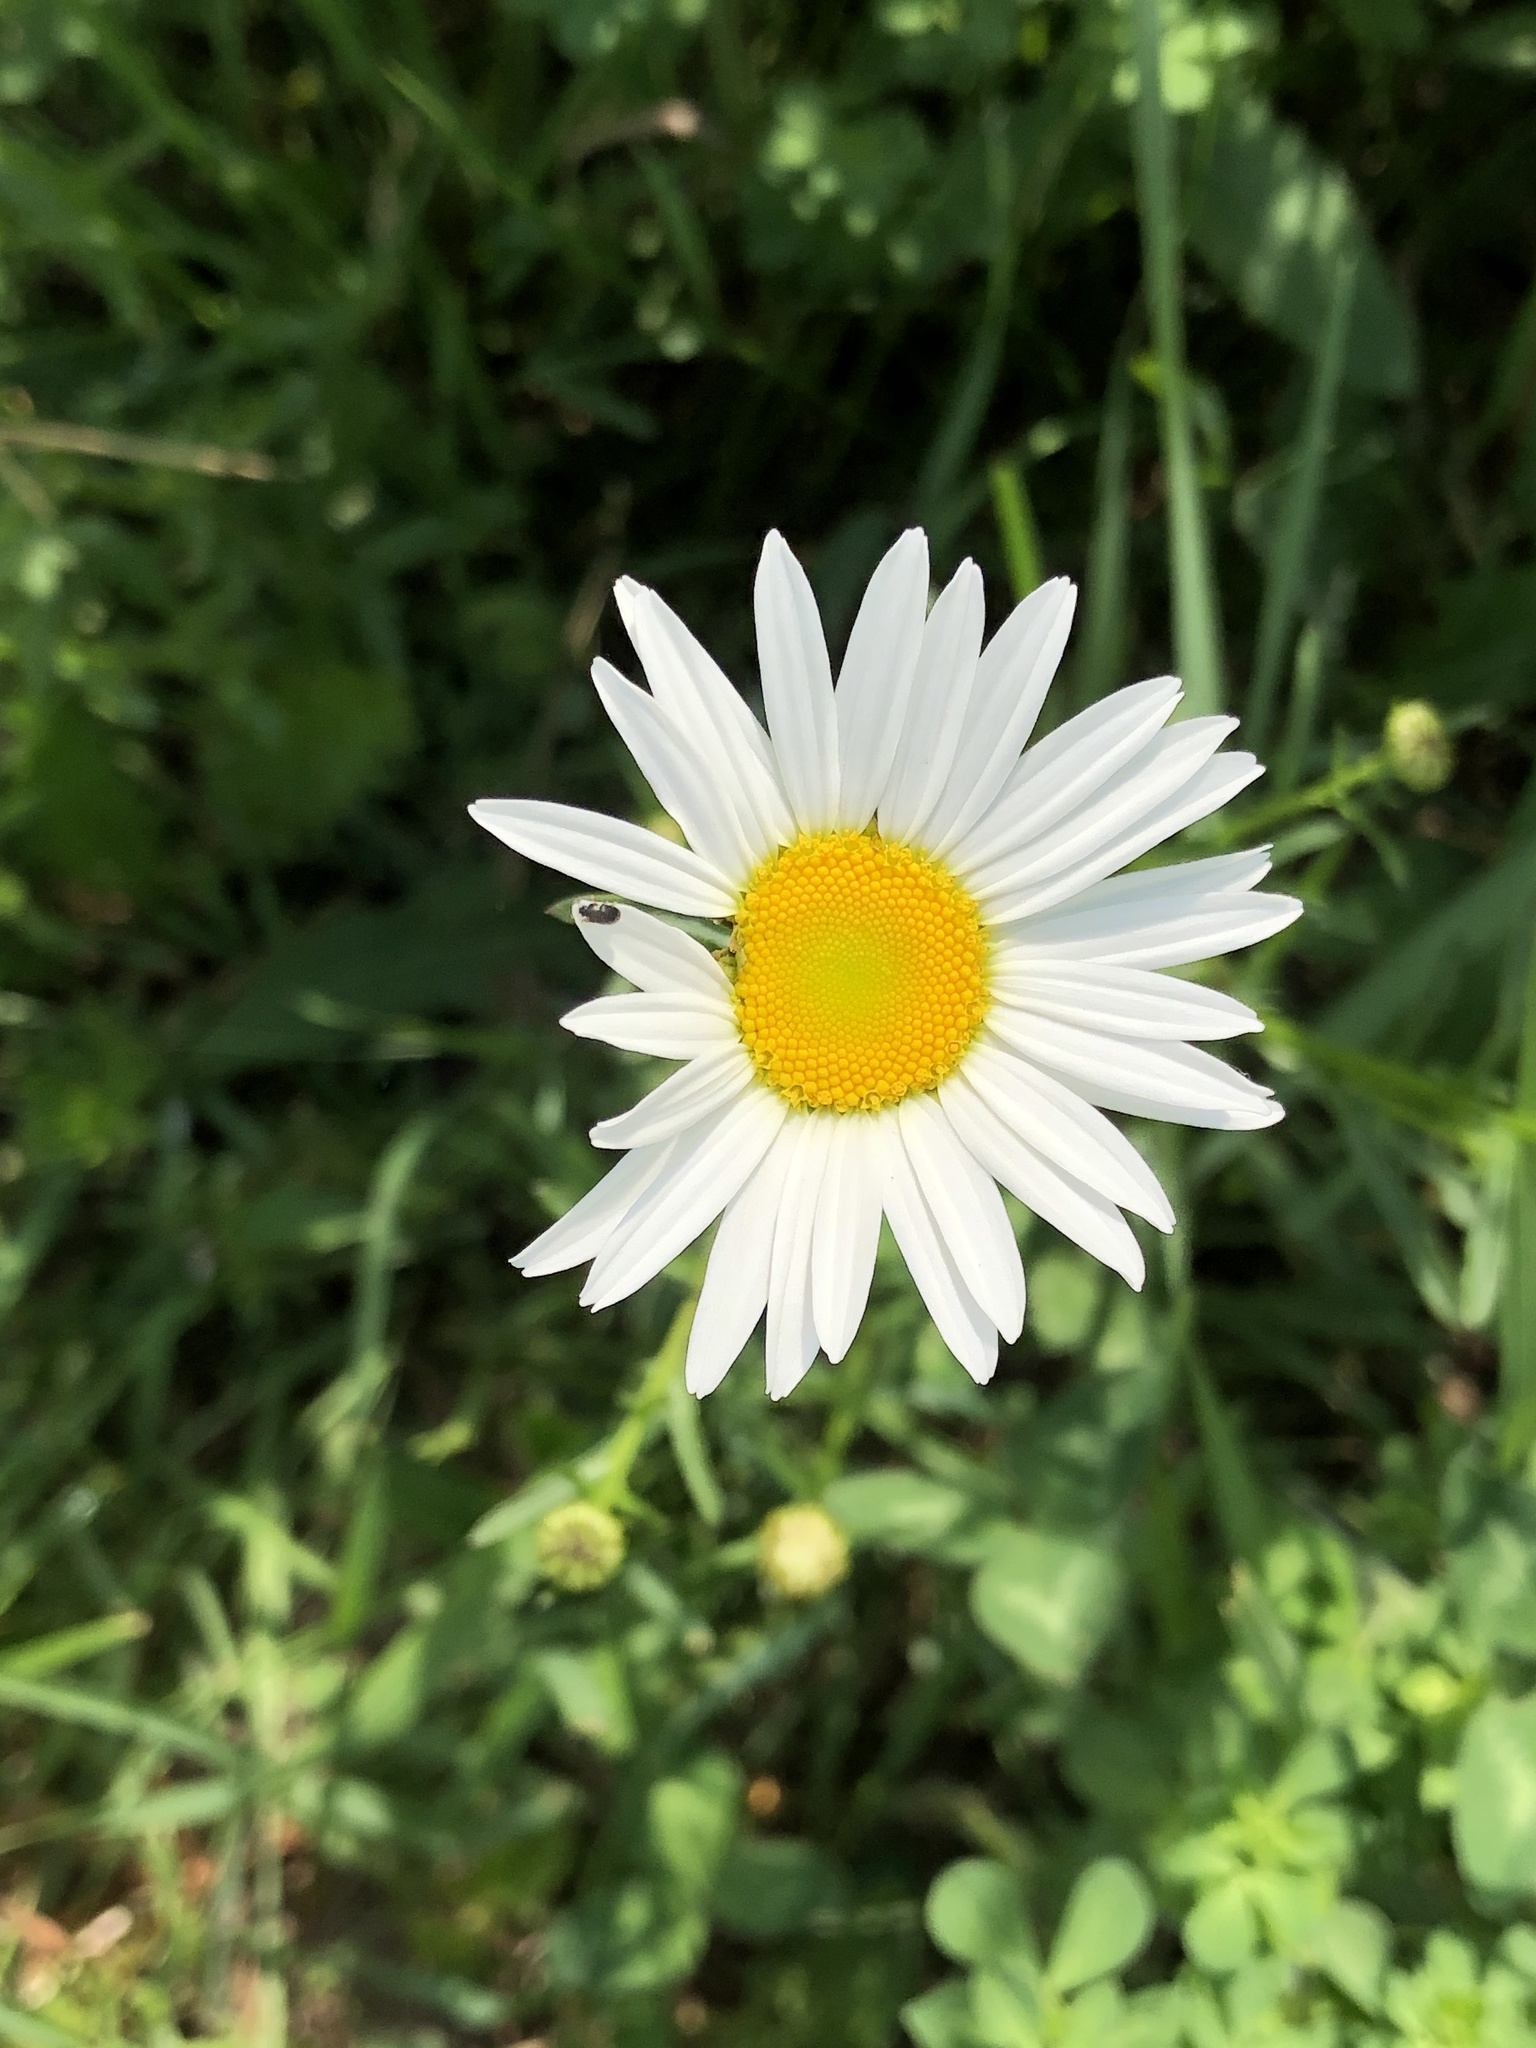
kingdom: Plantae
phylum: Tracheophyta
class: Magnoliopsida
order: Asterales
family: Asteraceae
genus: Leucanthemum
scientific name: Leucanthemum vulgare
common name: Oxeye daisy
